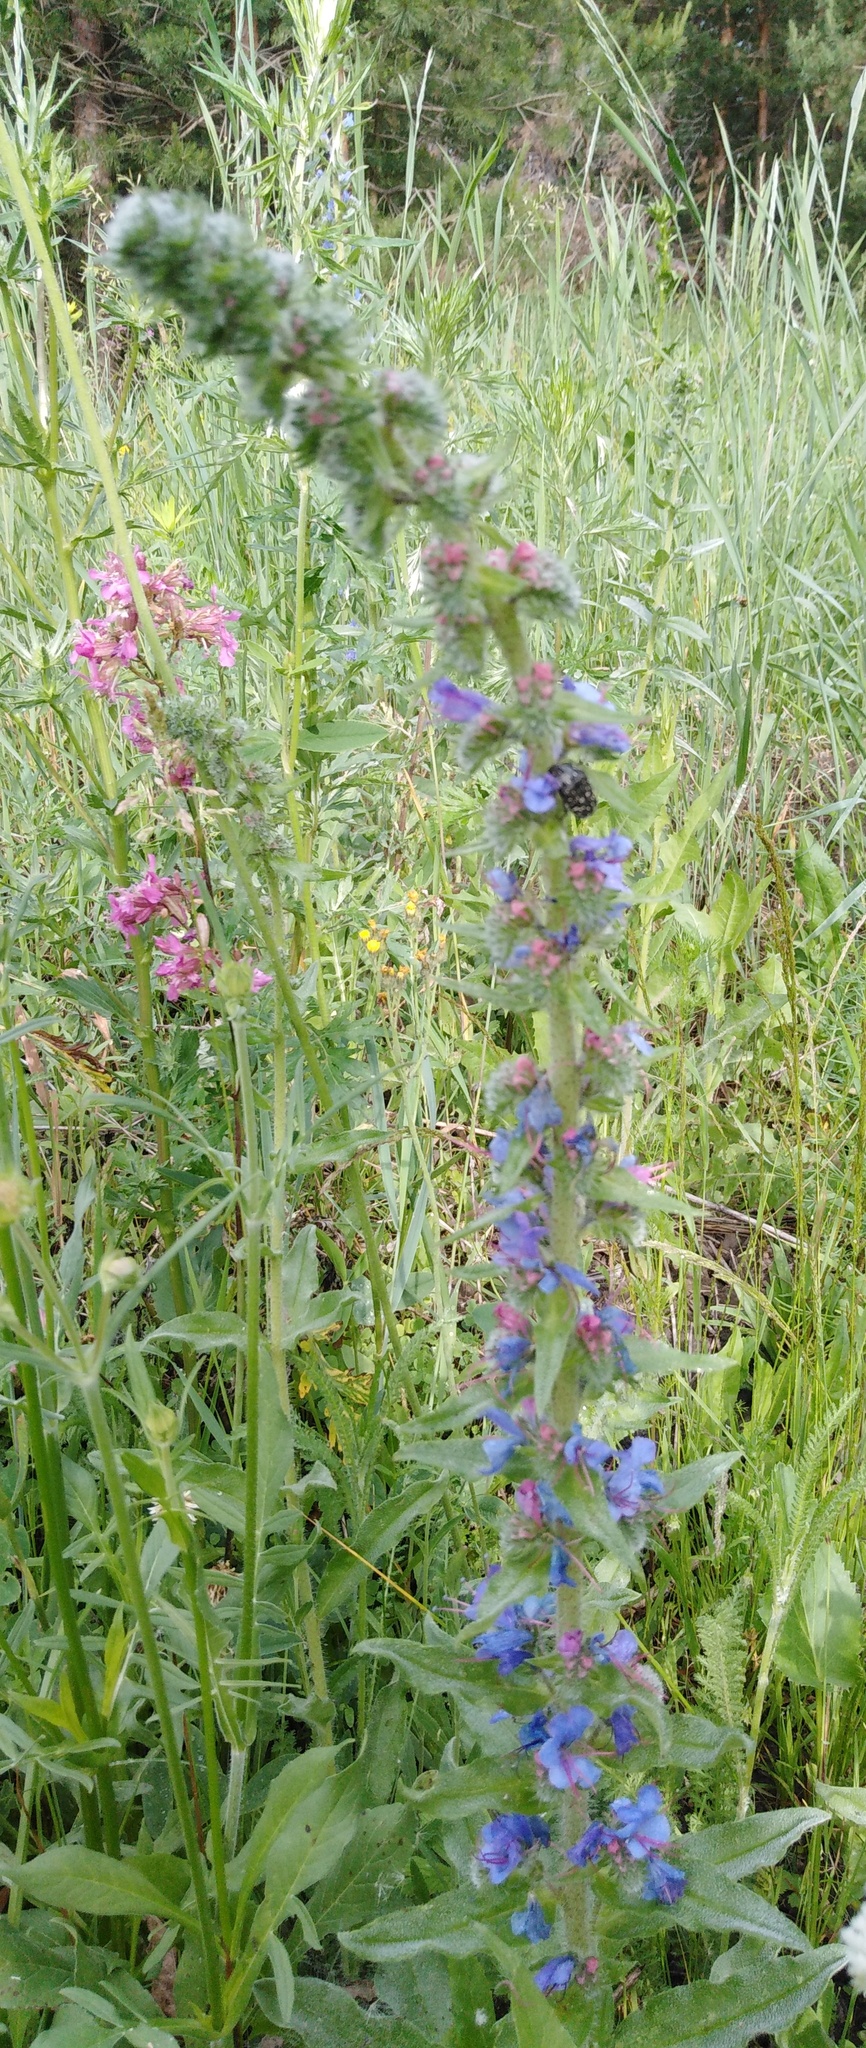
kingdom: Plantae
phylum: Tracheophyta
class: Magnoliopsida
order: Boraginales
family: Boraginaceae
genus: Echium
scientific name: Echium vulgare
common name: Common viper's bugloss
